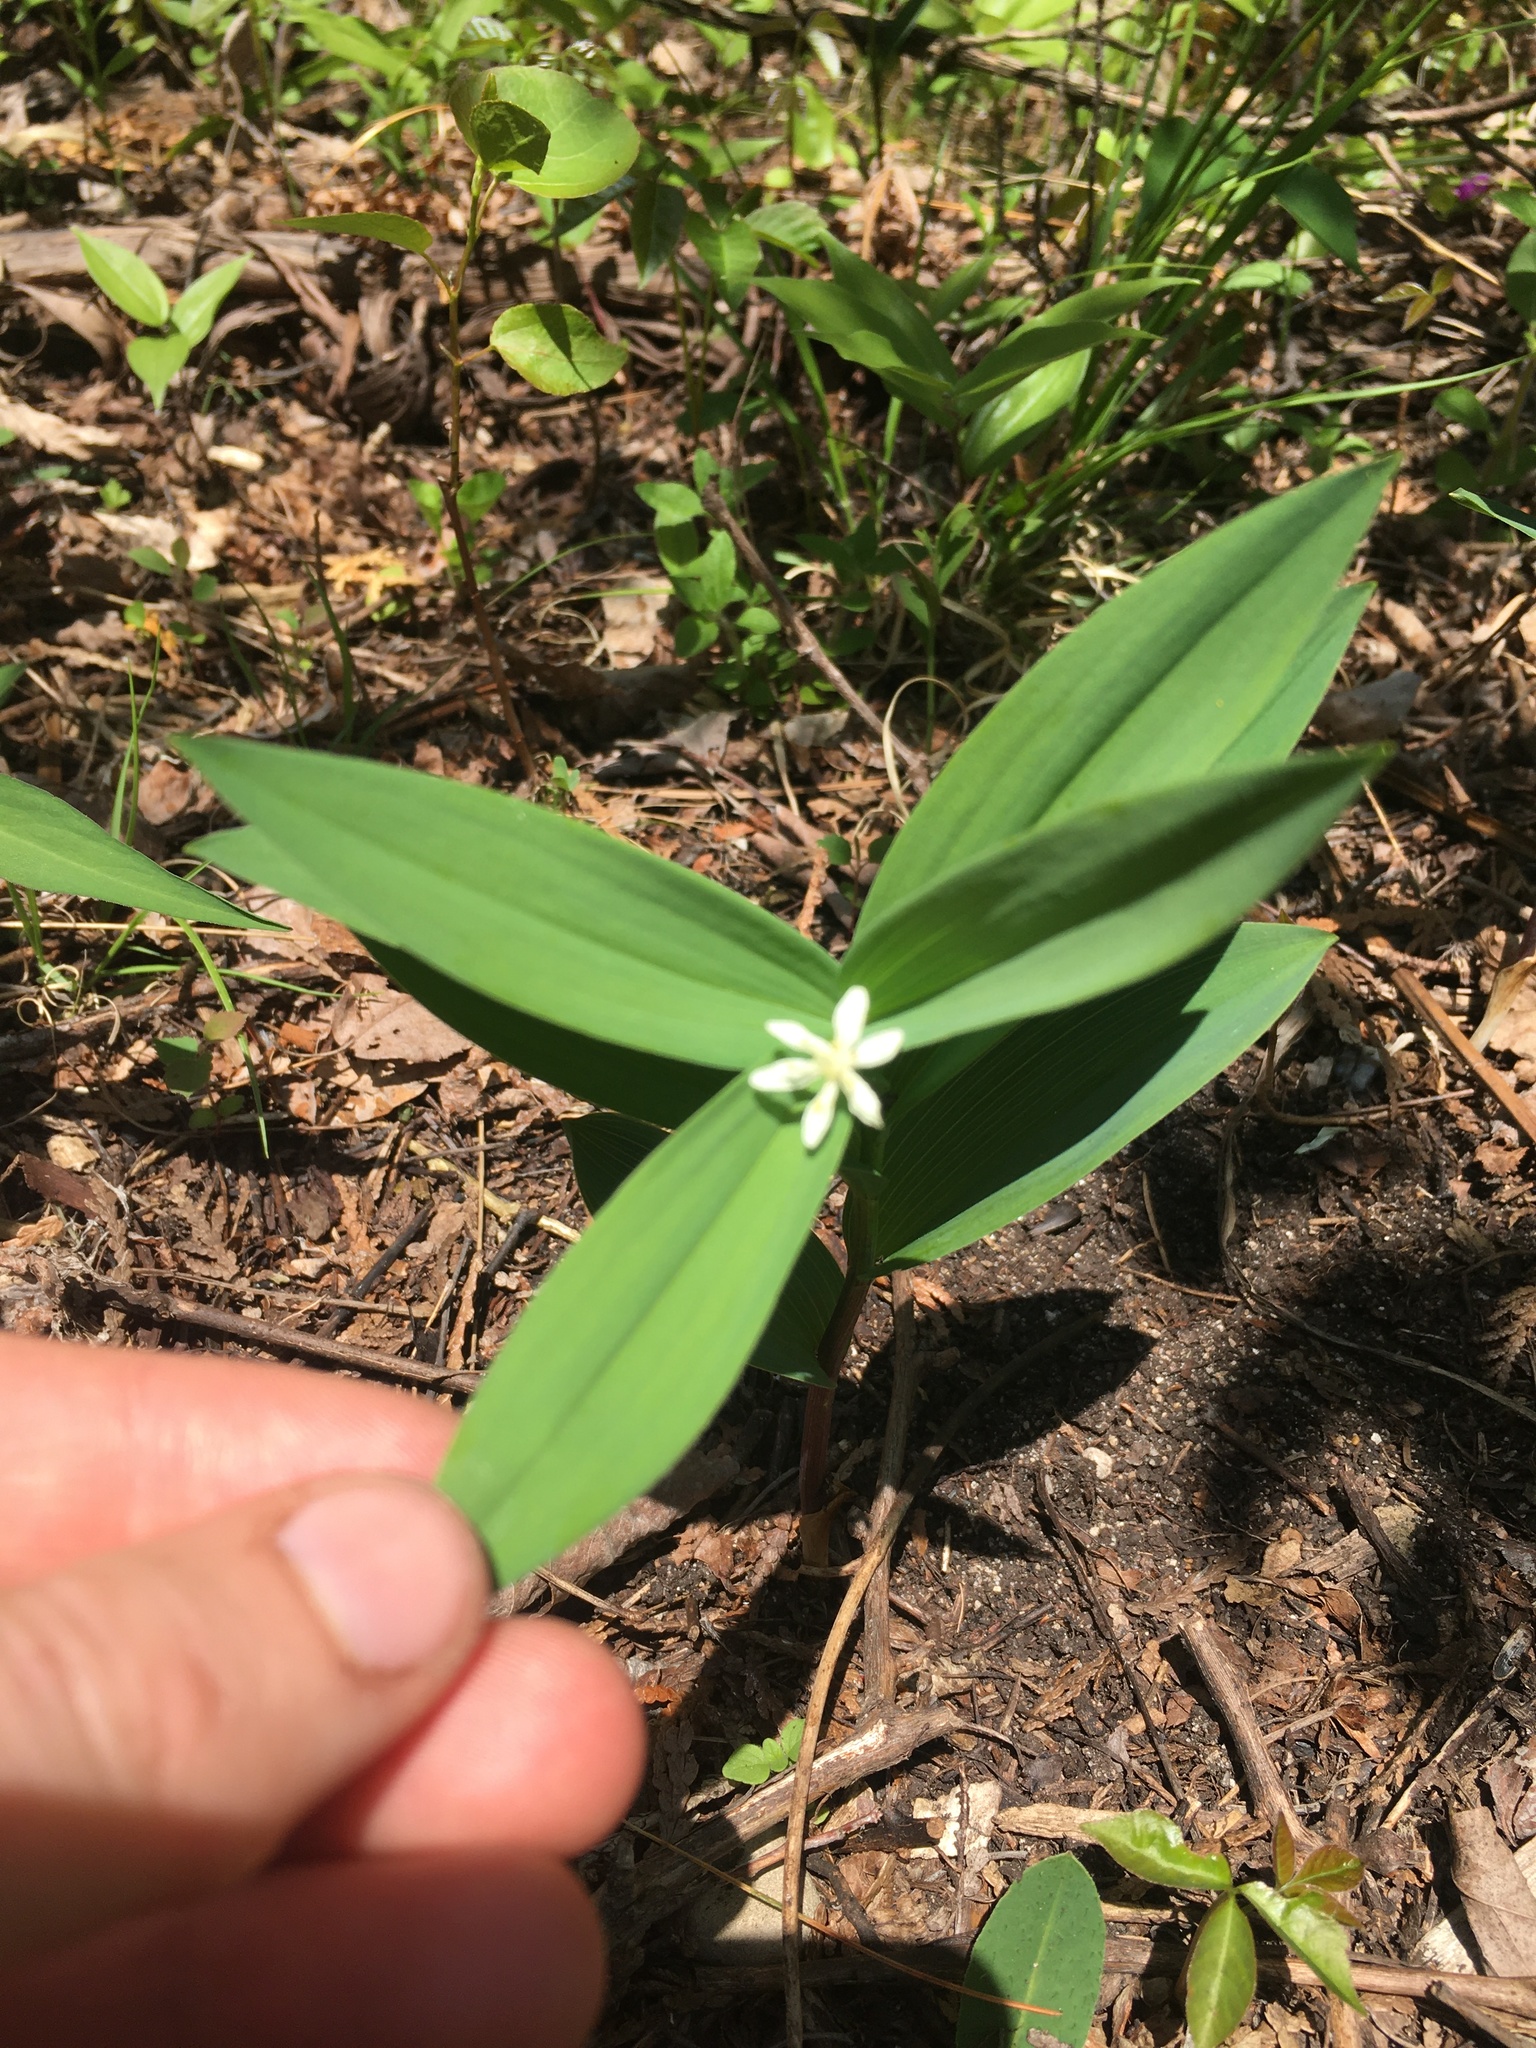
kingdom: Plantae
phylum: Tracheophyta
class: Liliopsida
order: Asparagales
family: Asparagaceae
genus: Maianthemum
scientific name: Maianthemum stellatum
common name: Little false solomon's seal
